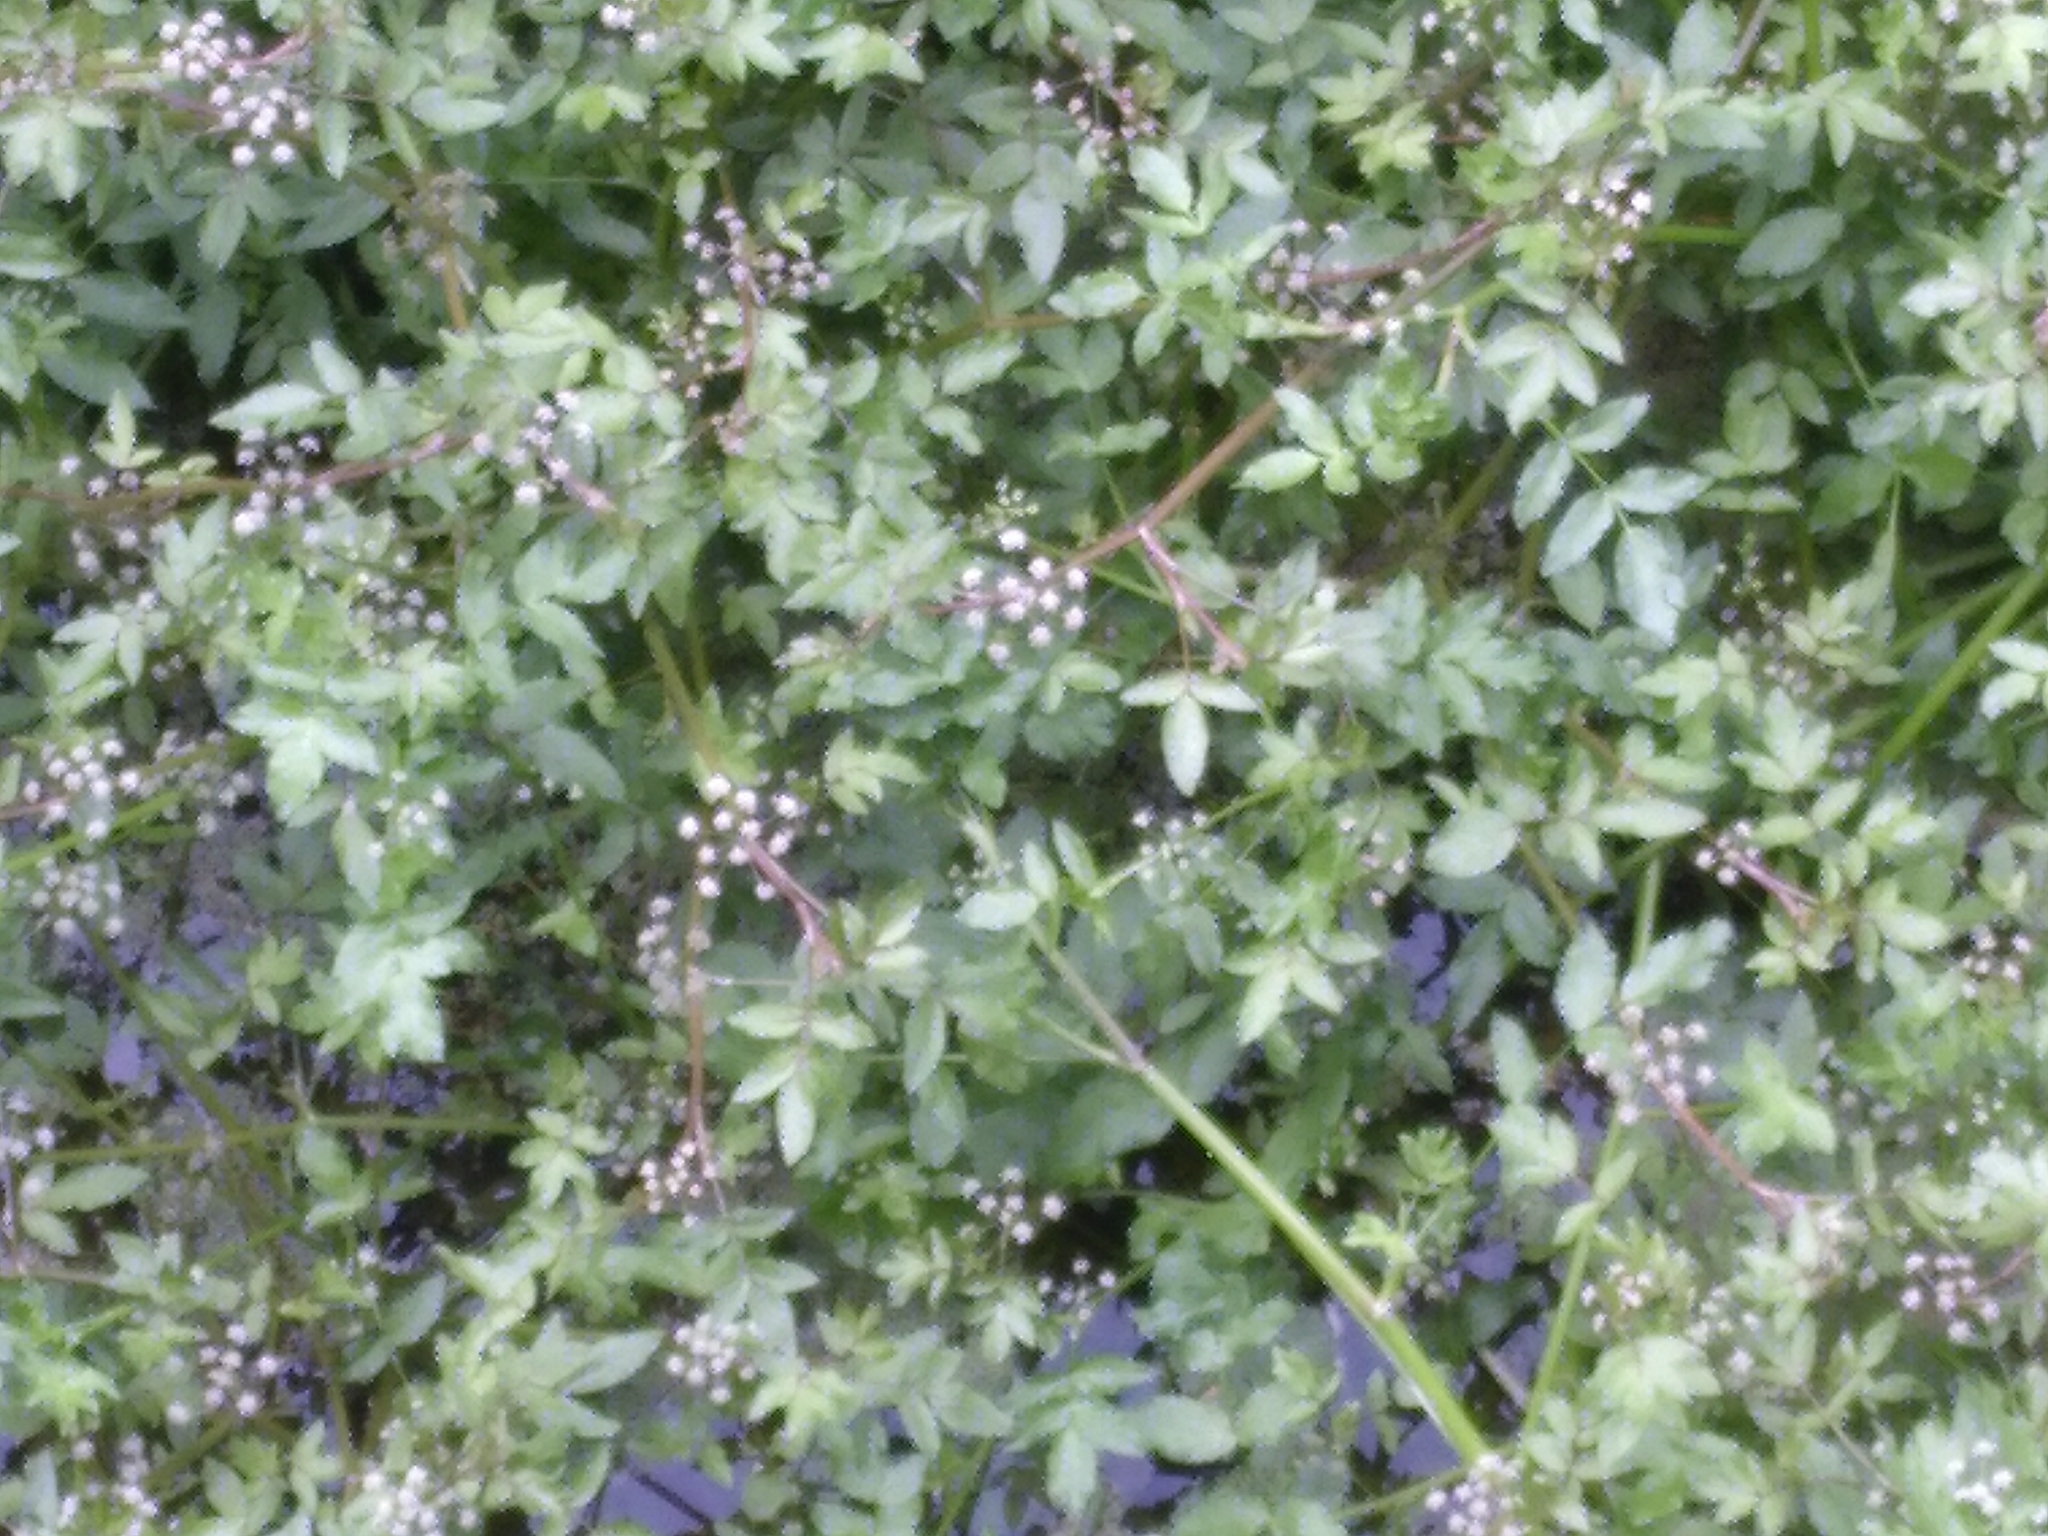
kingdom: Plantae
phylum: Tracheophyta
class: Magnoliopsida
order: Apiales
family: Apiaceae
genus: Helosciadium
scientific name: Helosciadium nodiflorum
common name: Fool's-watercress
